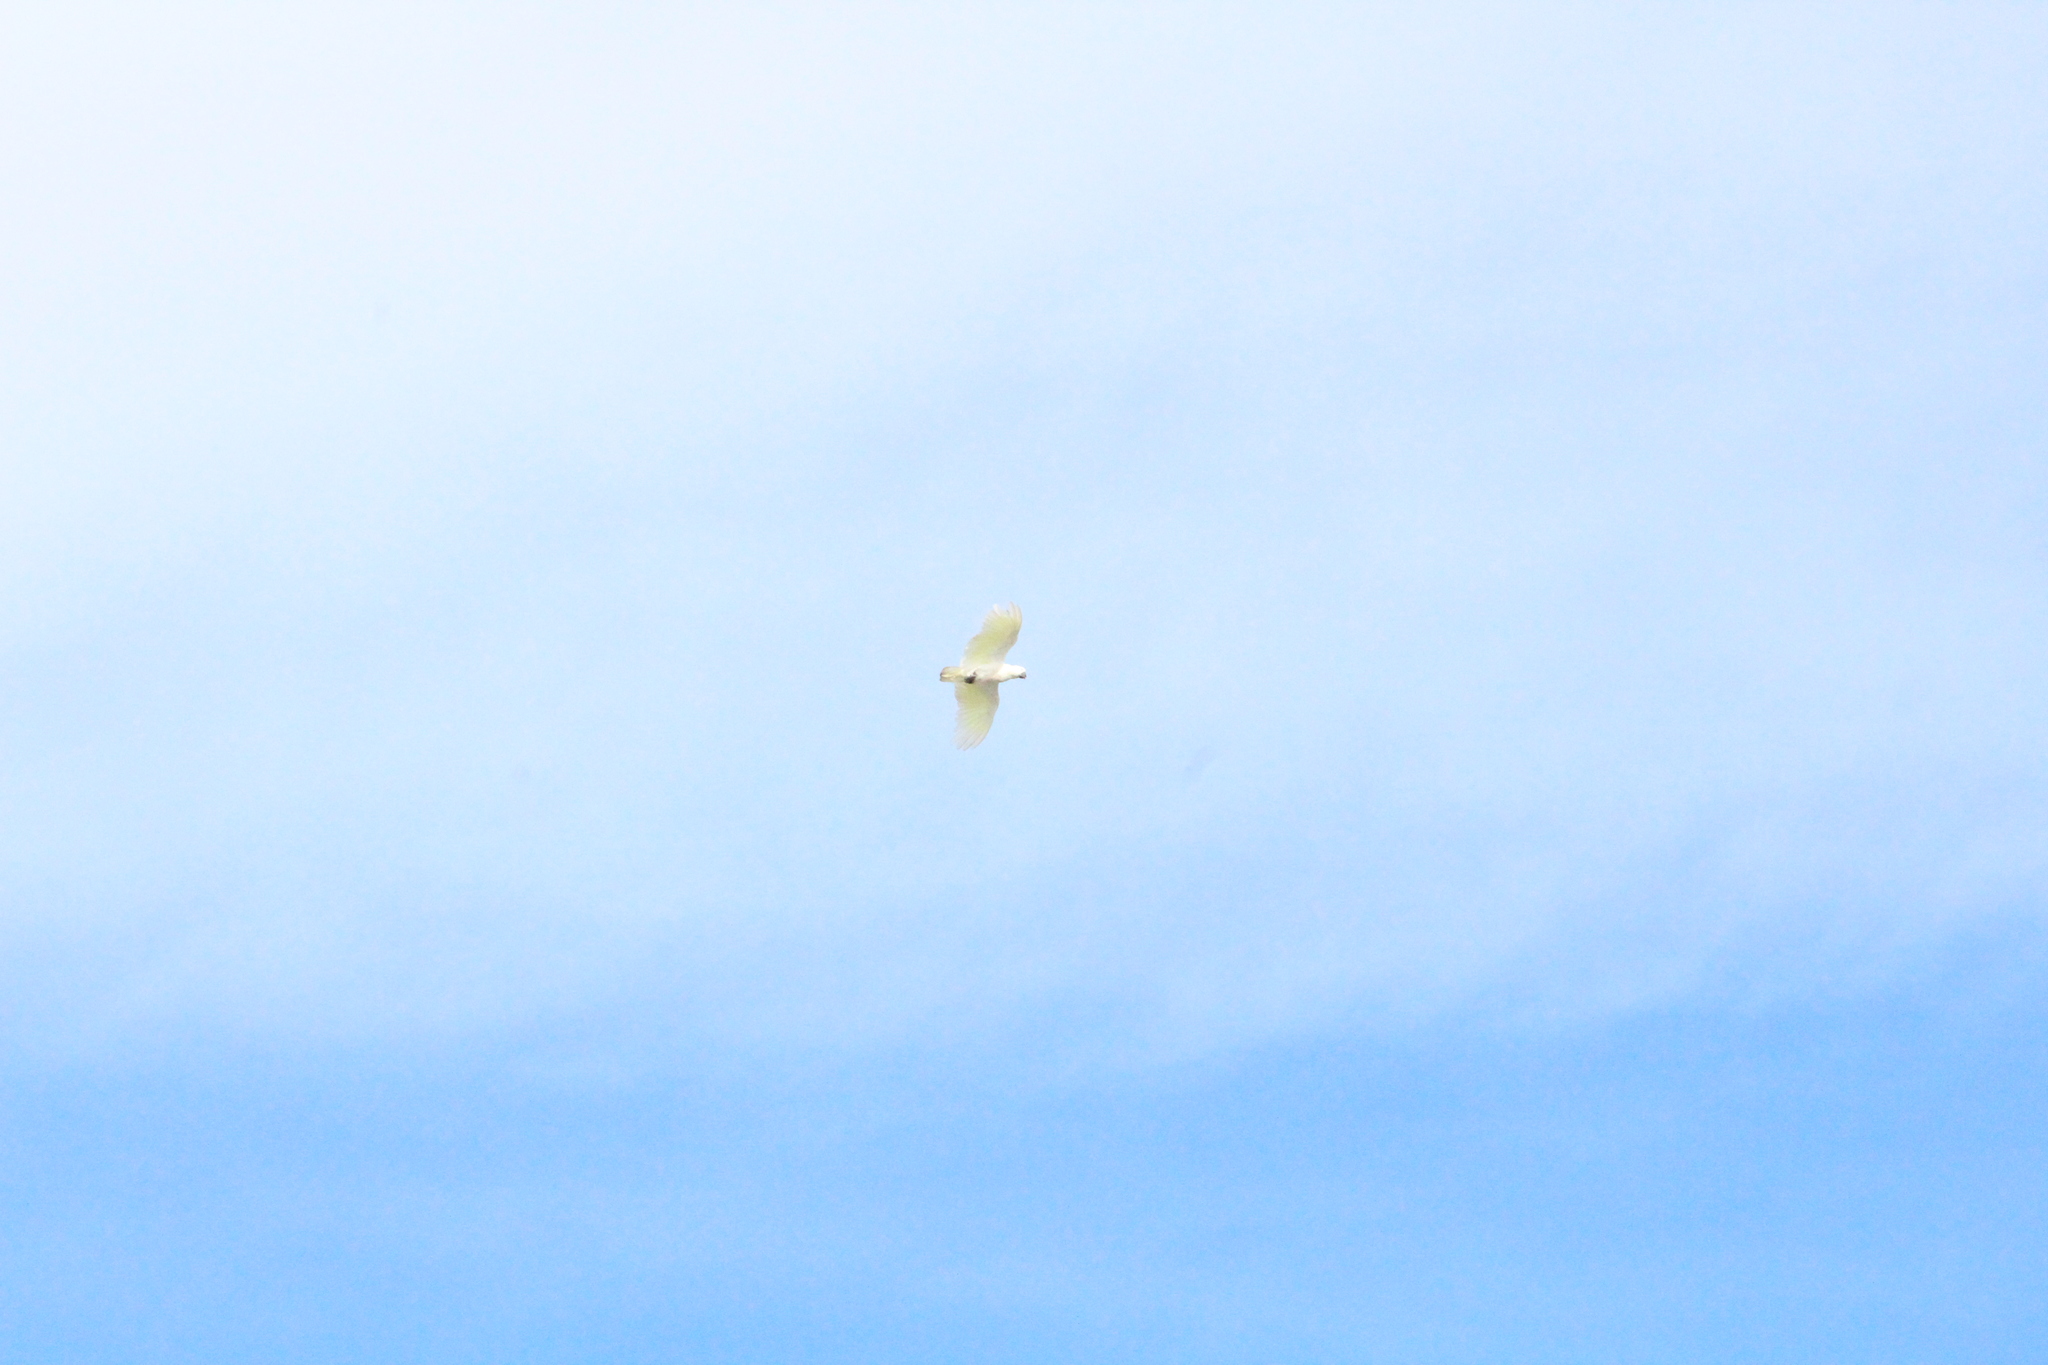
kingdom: Animalia
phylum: Chordata
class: Aves
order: Psittaciformes
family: Psittacidae
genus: Cacatua
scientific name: Cacatua galerita
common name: Sulphur-crested cockatoo
